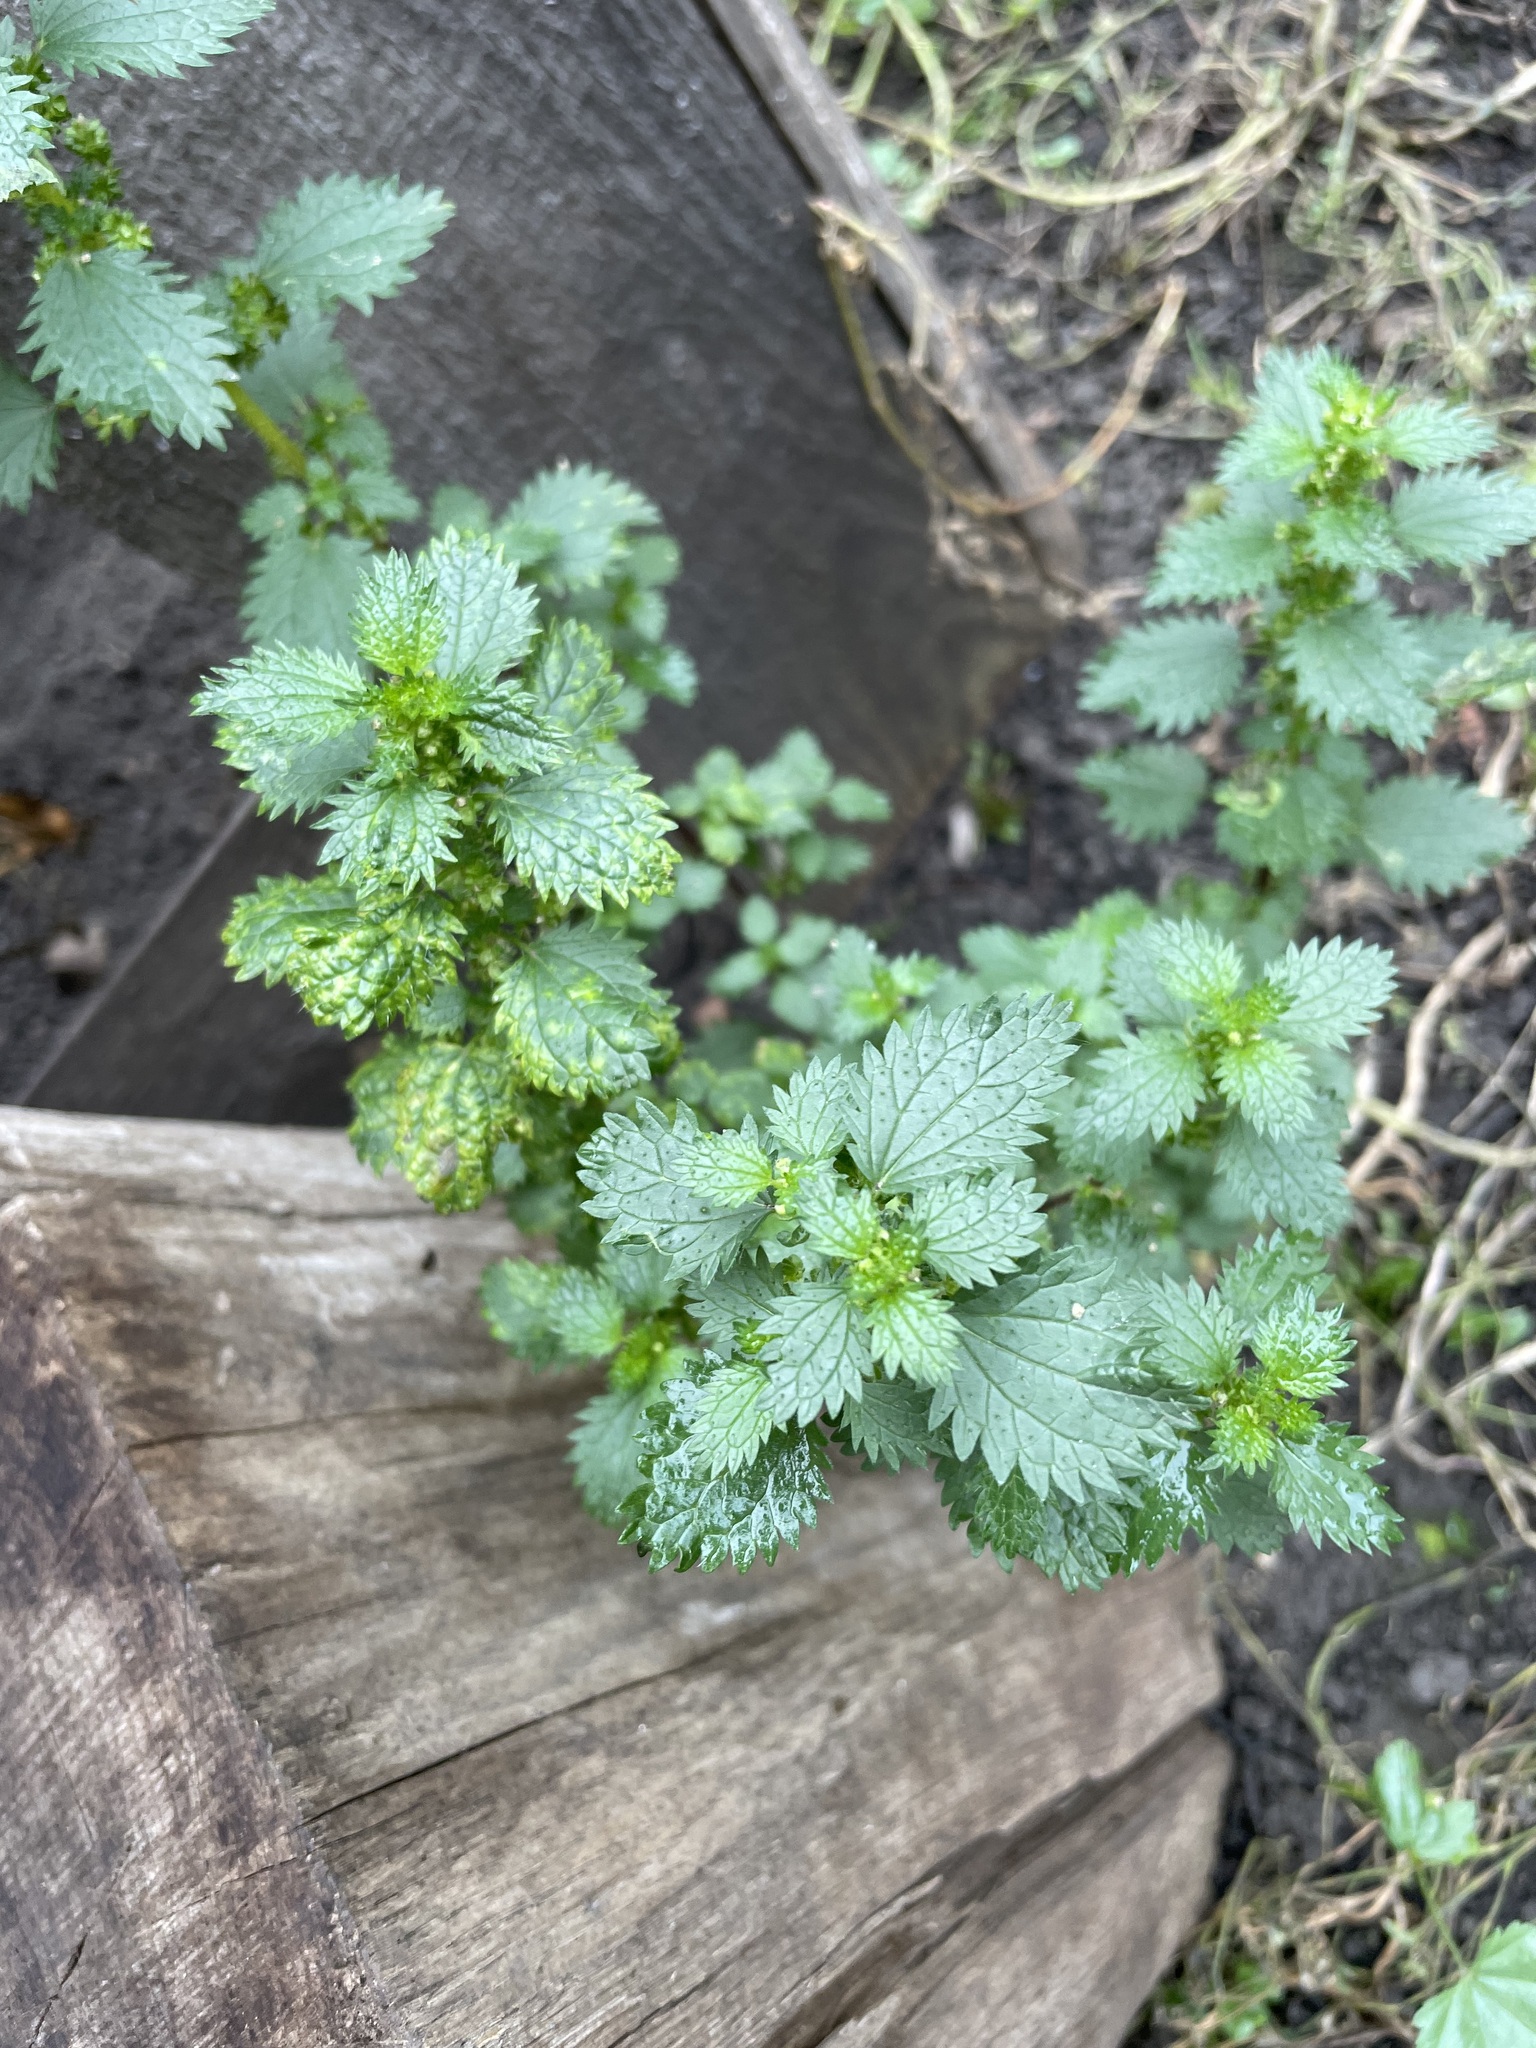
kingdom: Plantae
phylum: Tracheophyta
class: Magnoliopsida
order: Rosales
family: Urticaceae
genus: Urtica
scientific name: Urtica urens
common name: Dwarf nettle
